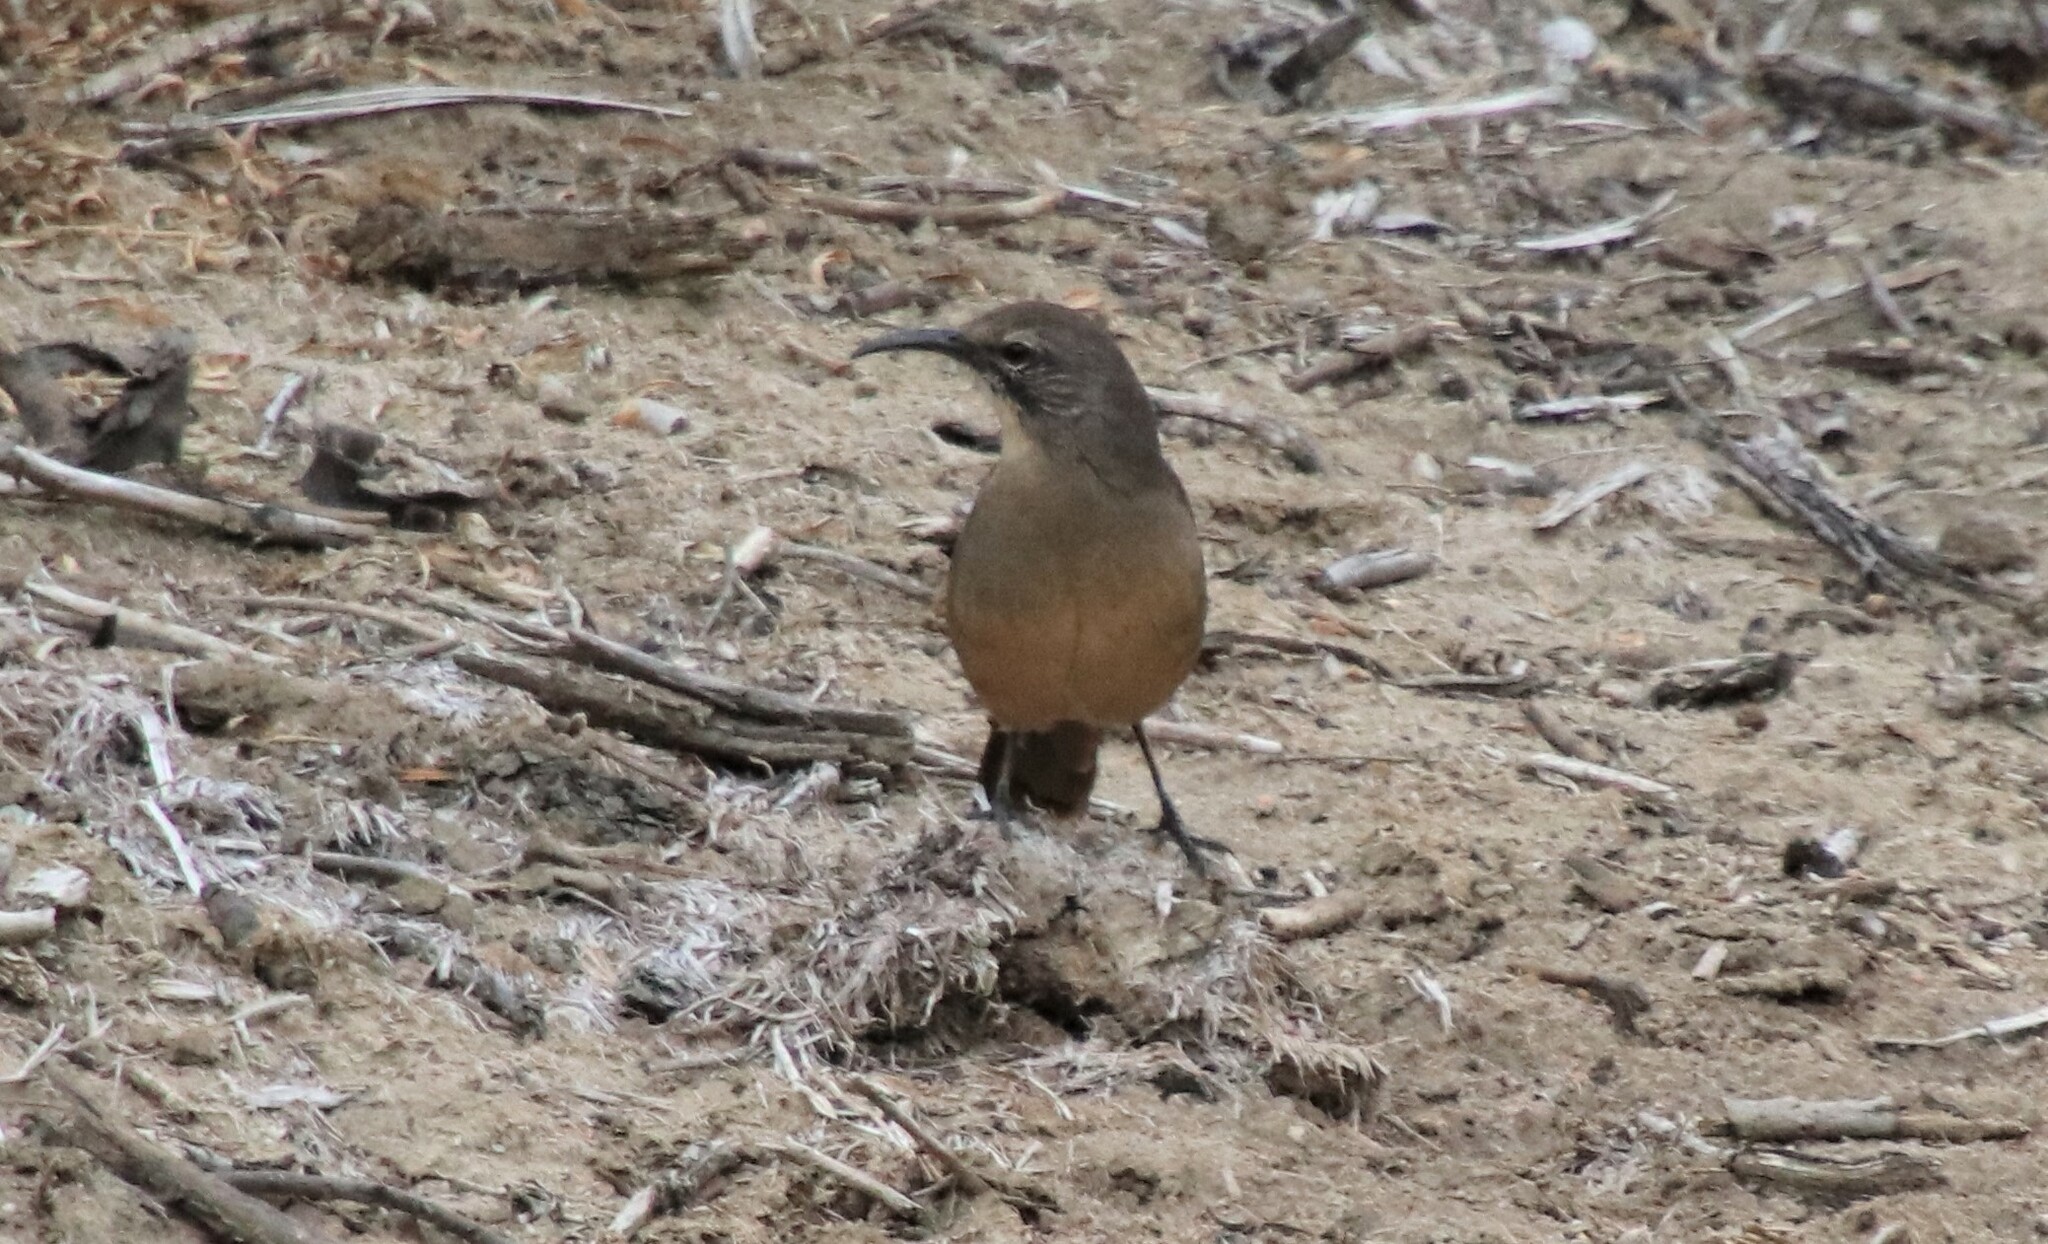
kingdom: Animalia
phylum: Chordata
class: Aves
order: Passeriformes
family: Mimidae
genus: Toxostoma
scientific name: Toxostoma redivivum
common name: California thrasher
